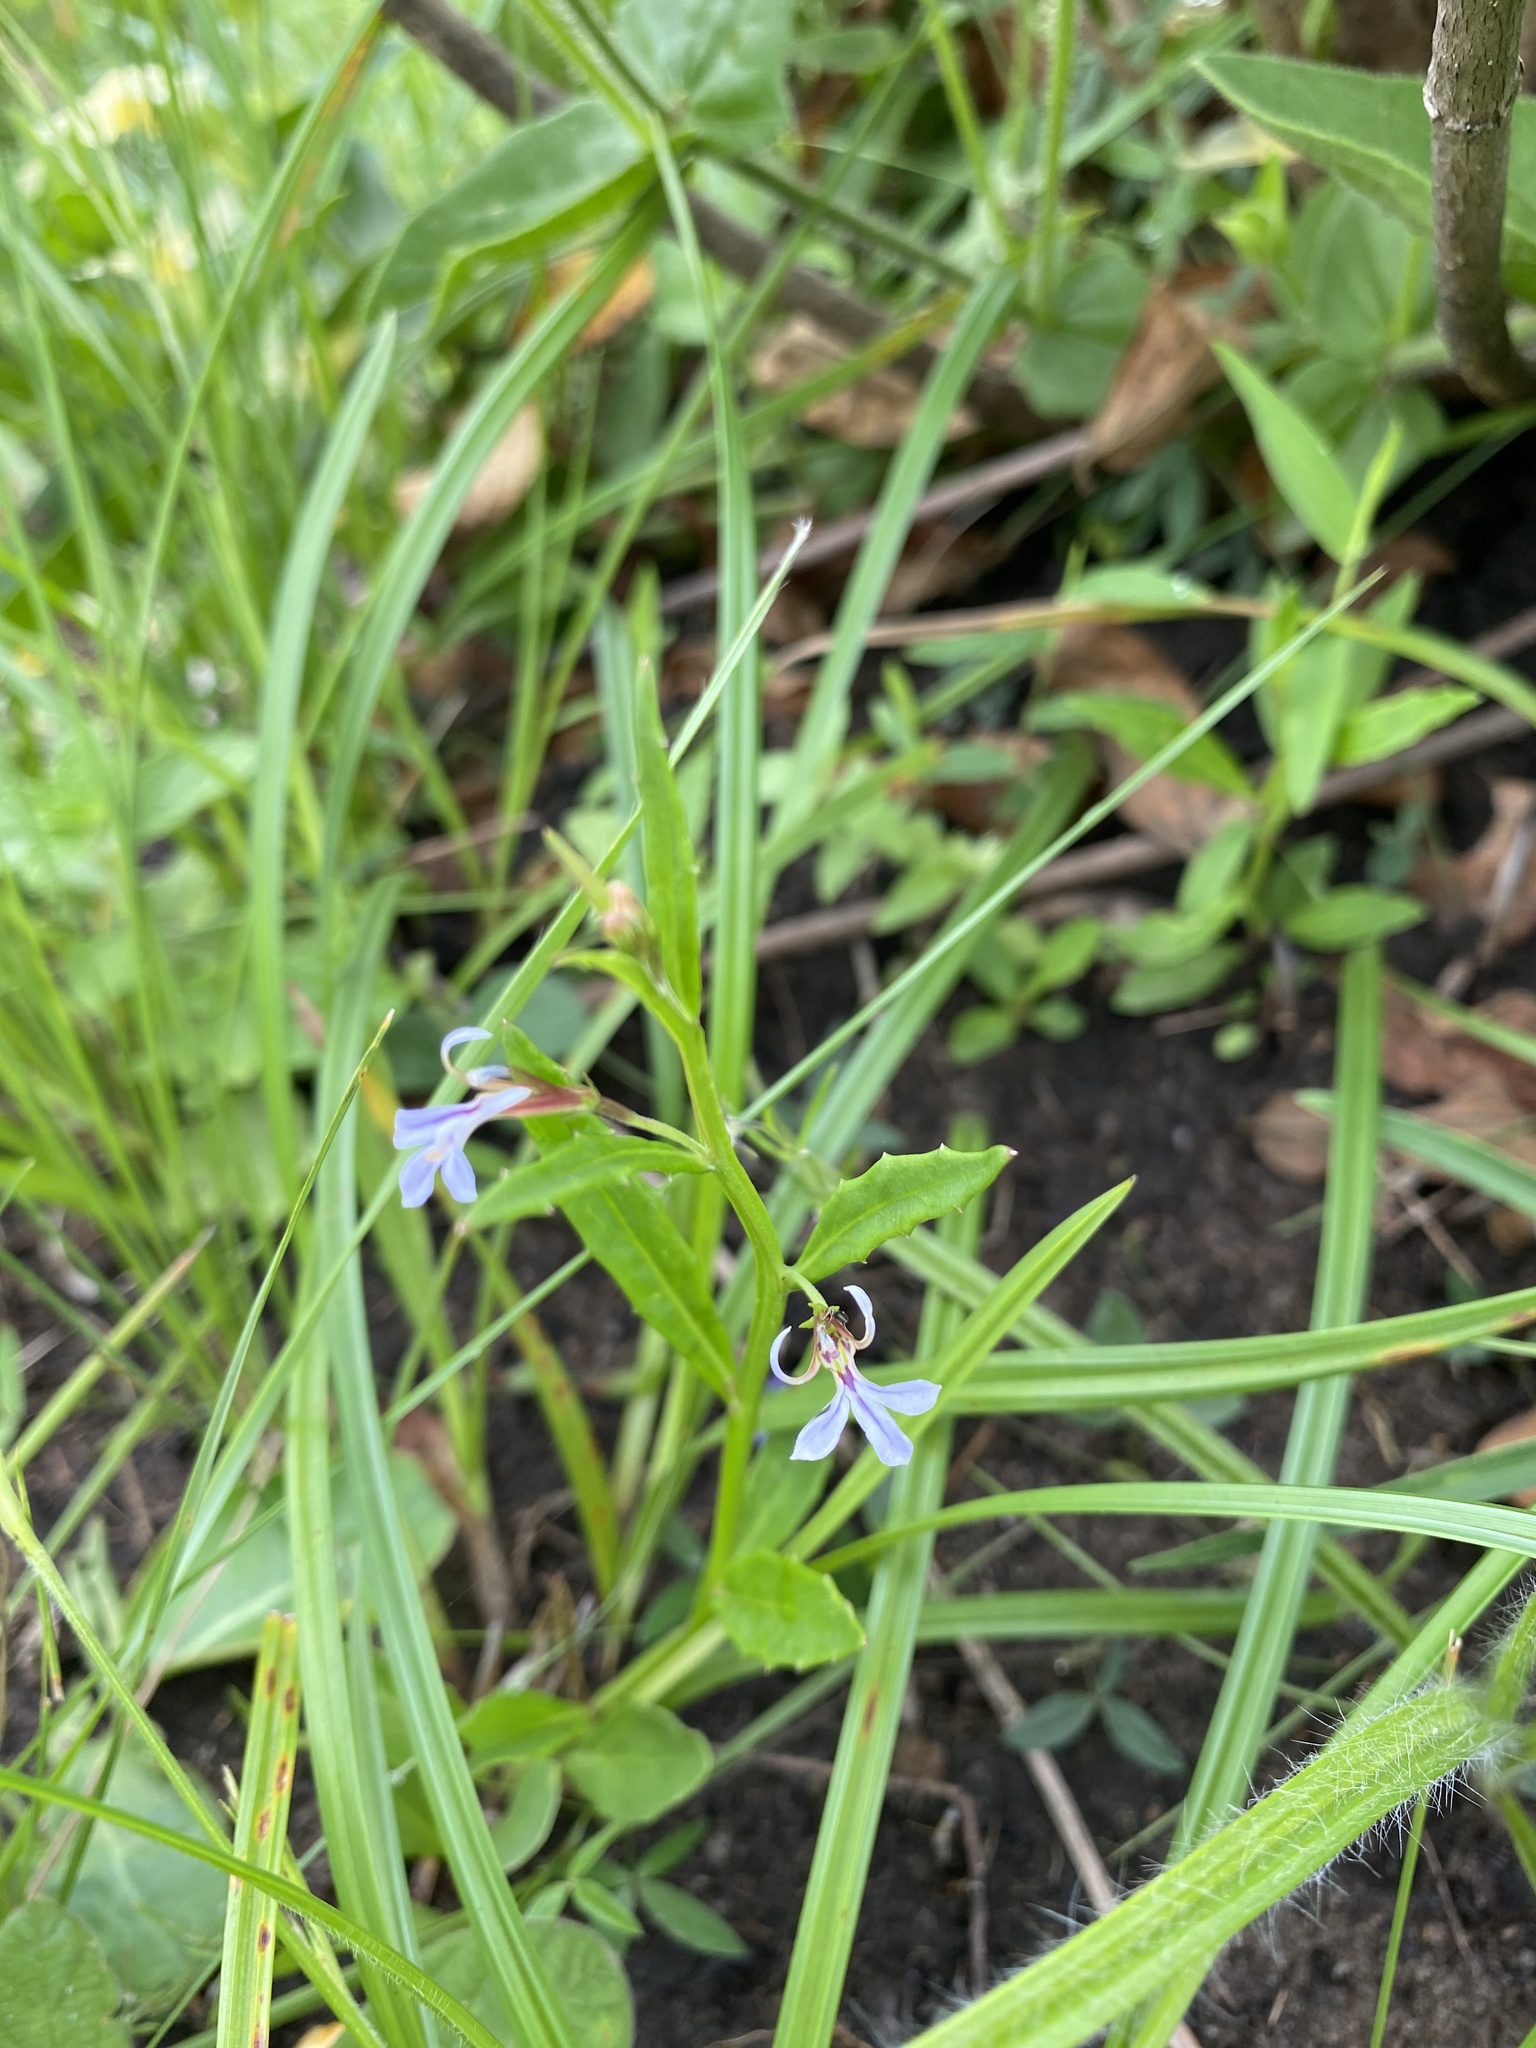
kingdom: Plantae
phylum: Tracheophyta
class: Magnoliopsida
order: Asterales
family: Campanulaceae
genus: Lobelia
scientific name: Lobelia anceps
